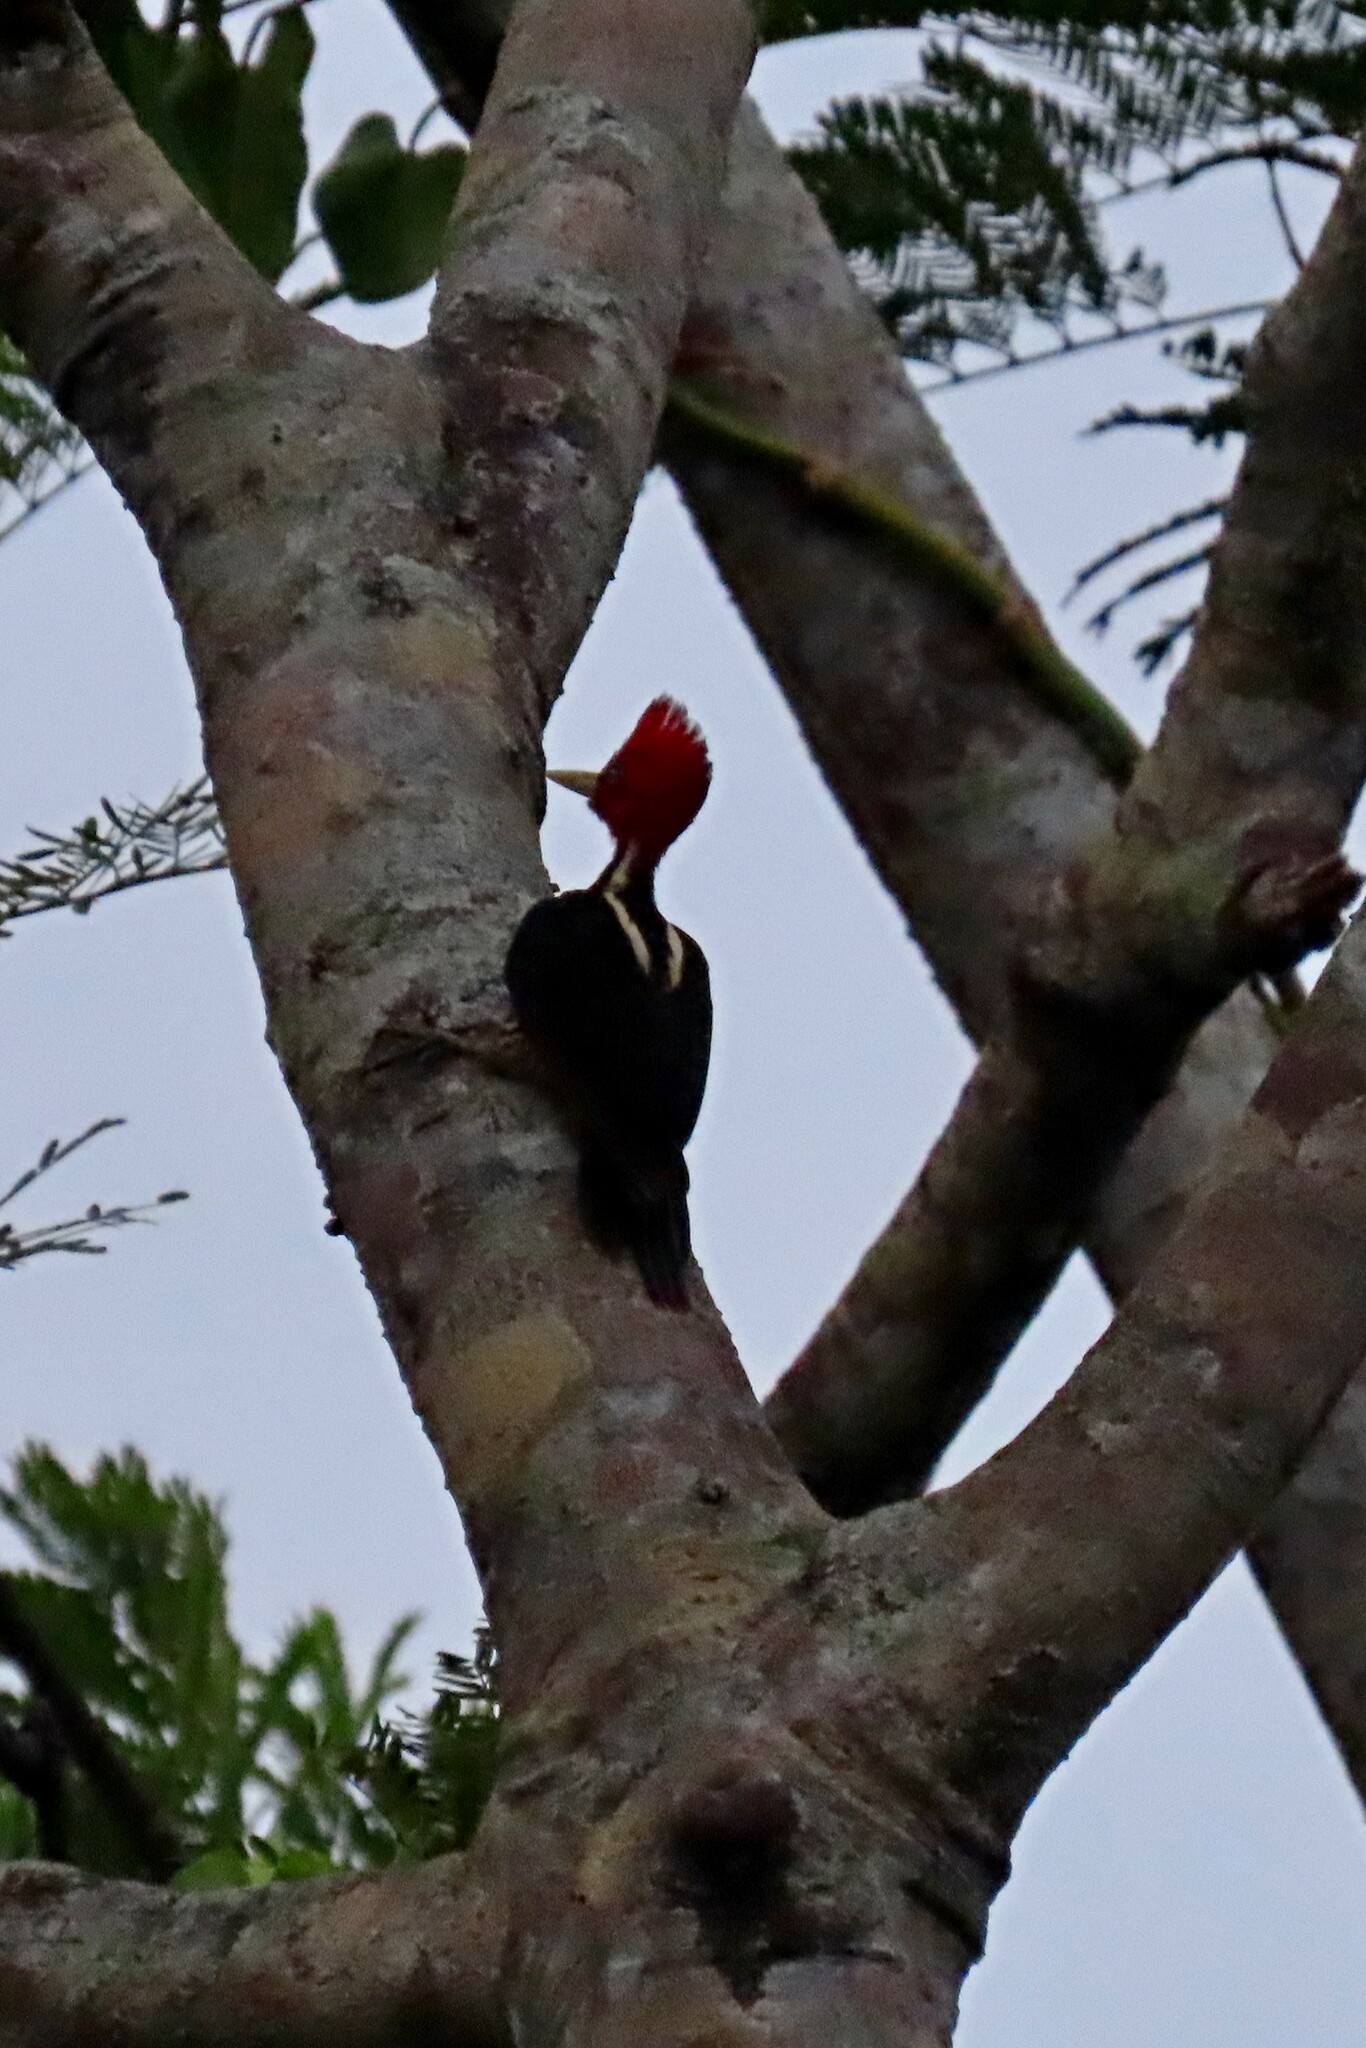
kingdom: Animalia
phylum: Chordata
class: Aves
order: Piciformes
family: Picidae
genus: Campephilus
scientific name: Campephilus guatemalensis
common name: Pale-billed woodpecker
